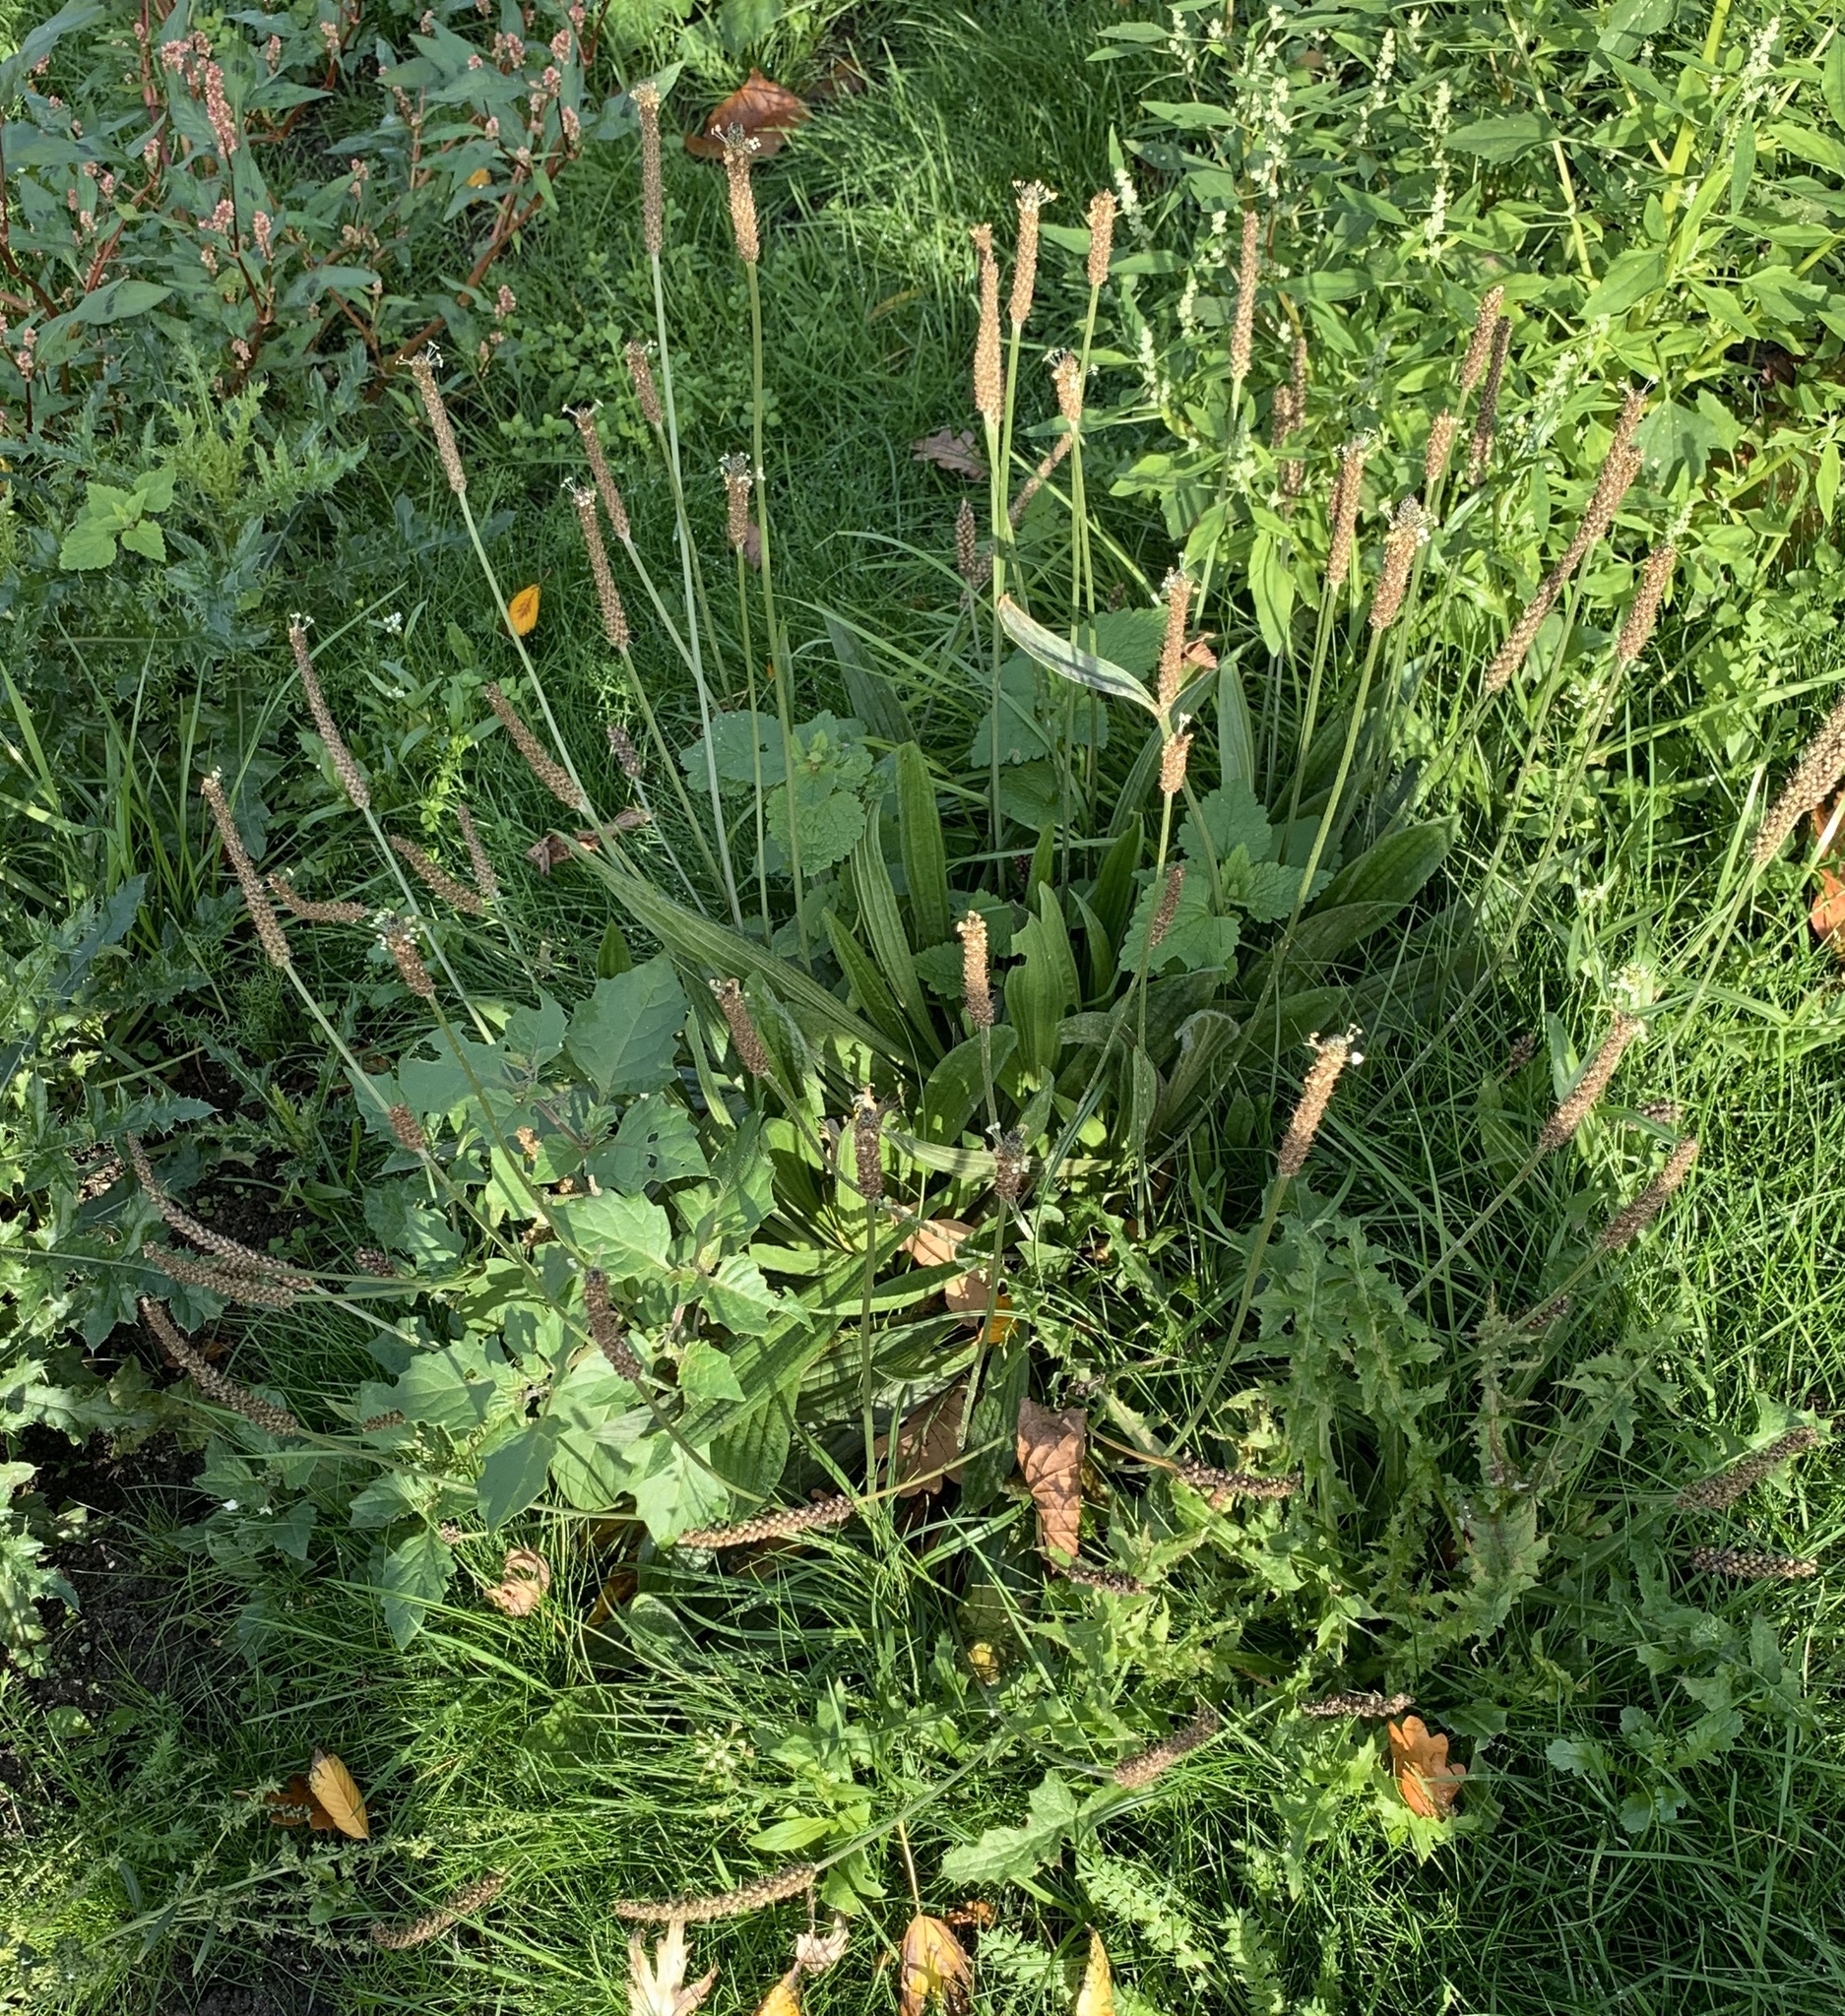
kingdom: Plantae
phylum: Tracheophyta
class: Magnoliopsida
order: Lamiales
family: Plantaginaceae
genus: Plantago
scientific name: Plantago lanceolata
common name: Ribwort plantain
